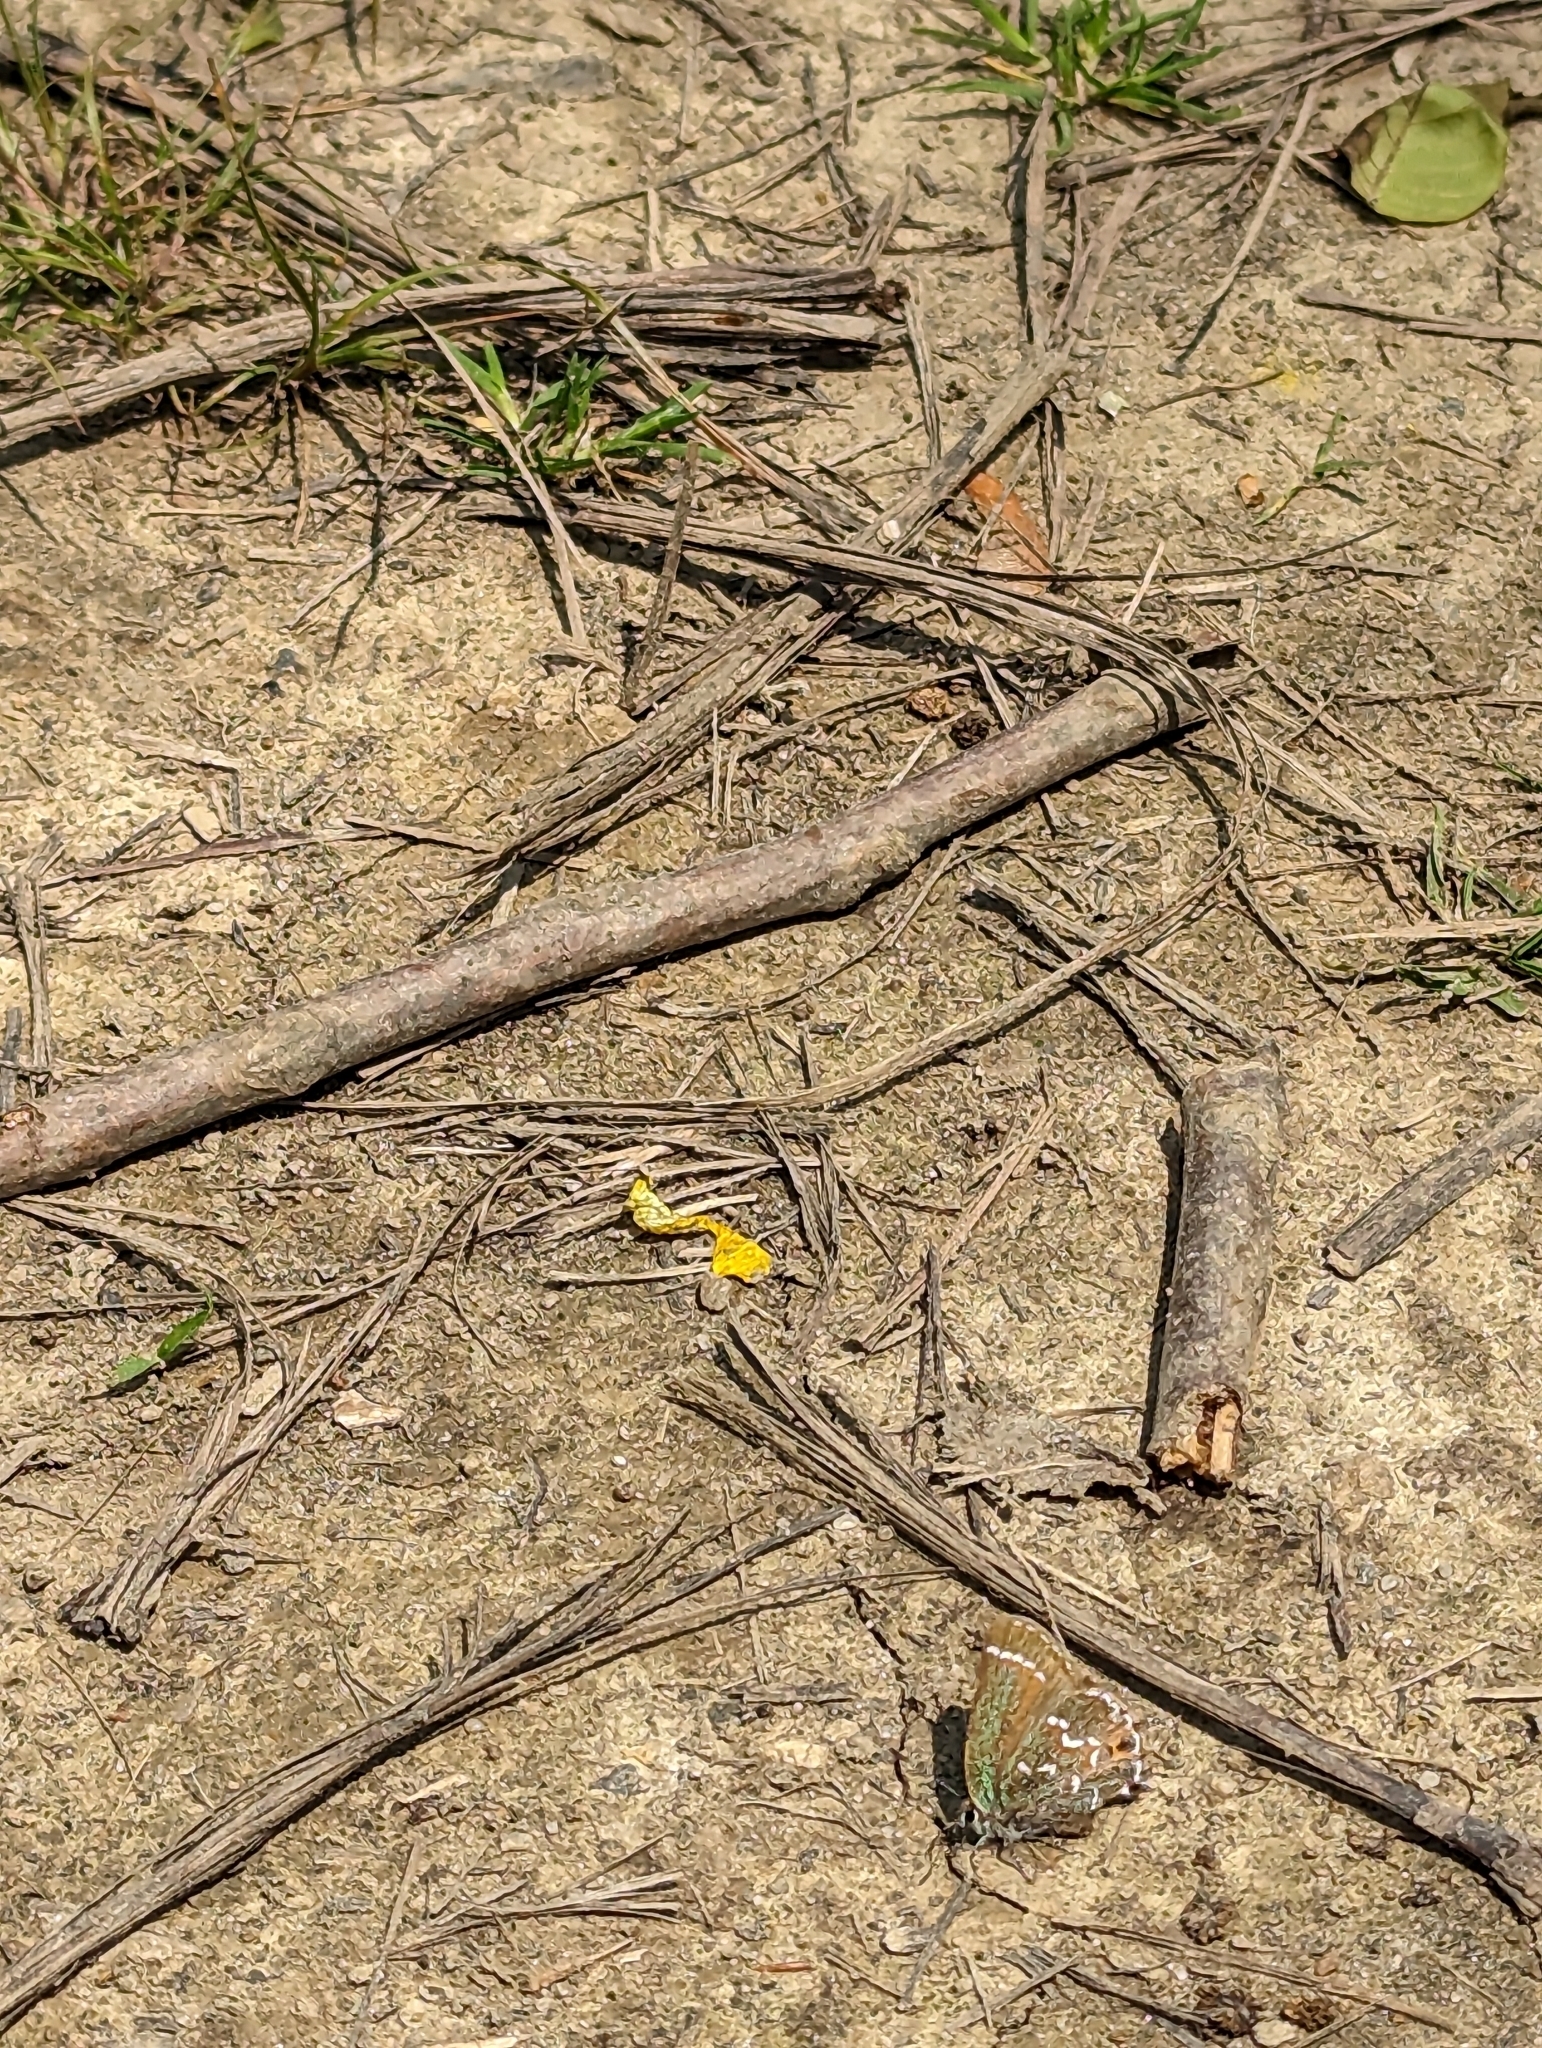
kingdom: Animalia
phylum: Arthropoda
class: Insecta
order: Lepidoptera
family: Lycaenidae
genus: Mitoura
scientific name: Mitoura gryneus
